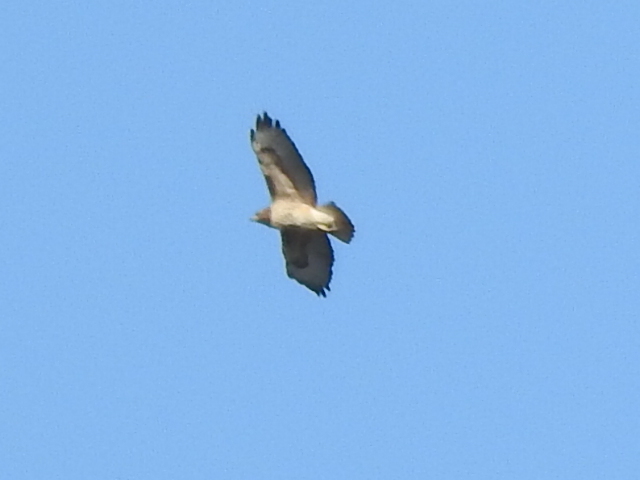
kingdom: Animalia
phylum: Chordata
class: Aves
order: Accipitriformes
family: Accipitridae
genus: Buteo
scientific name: Buteo jamaicensis
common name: Red-tailed hawk
